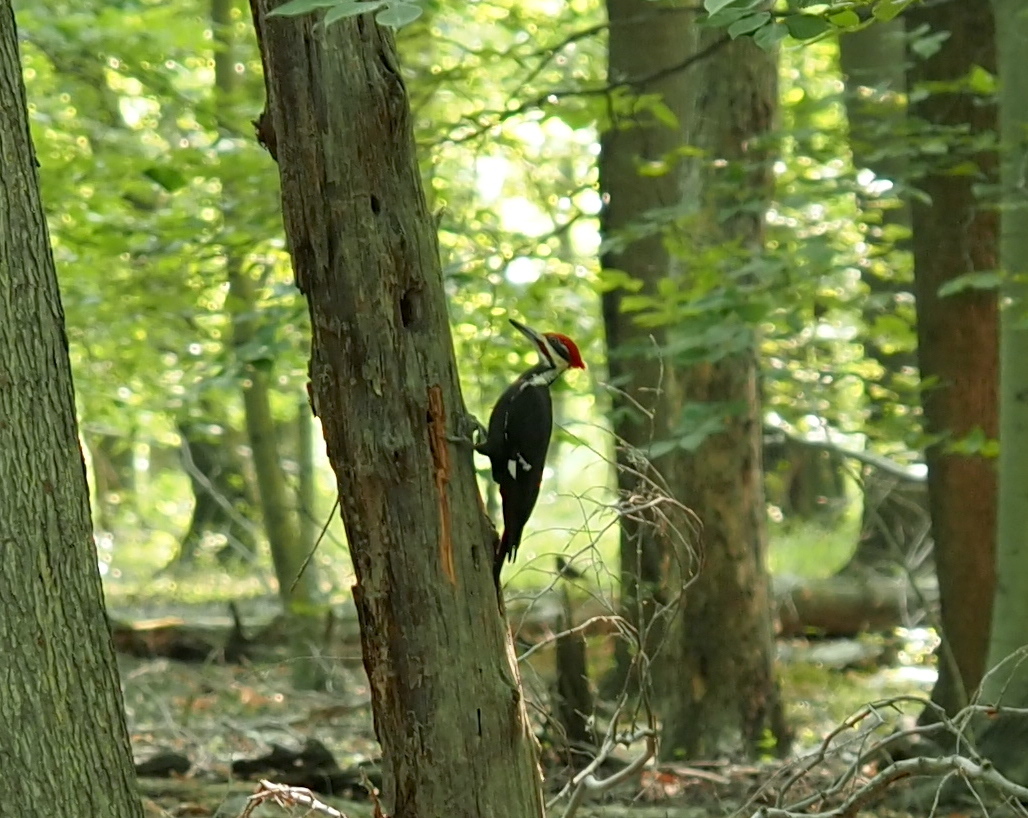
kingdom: Animalia
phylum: Chordata
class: Aves
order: Piciformes
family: Picidae
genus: Dryocopus
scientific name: Dryocopus pileatus
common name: Pileated woodpecker
